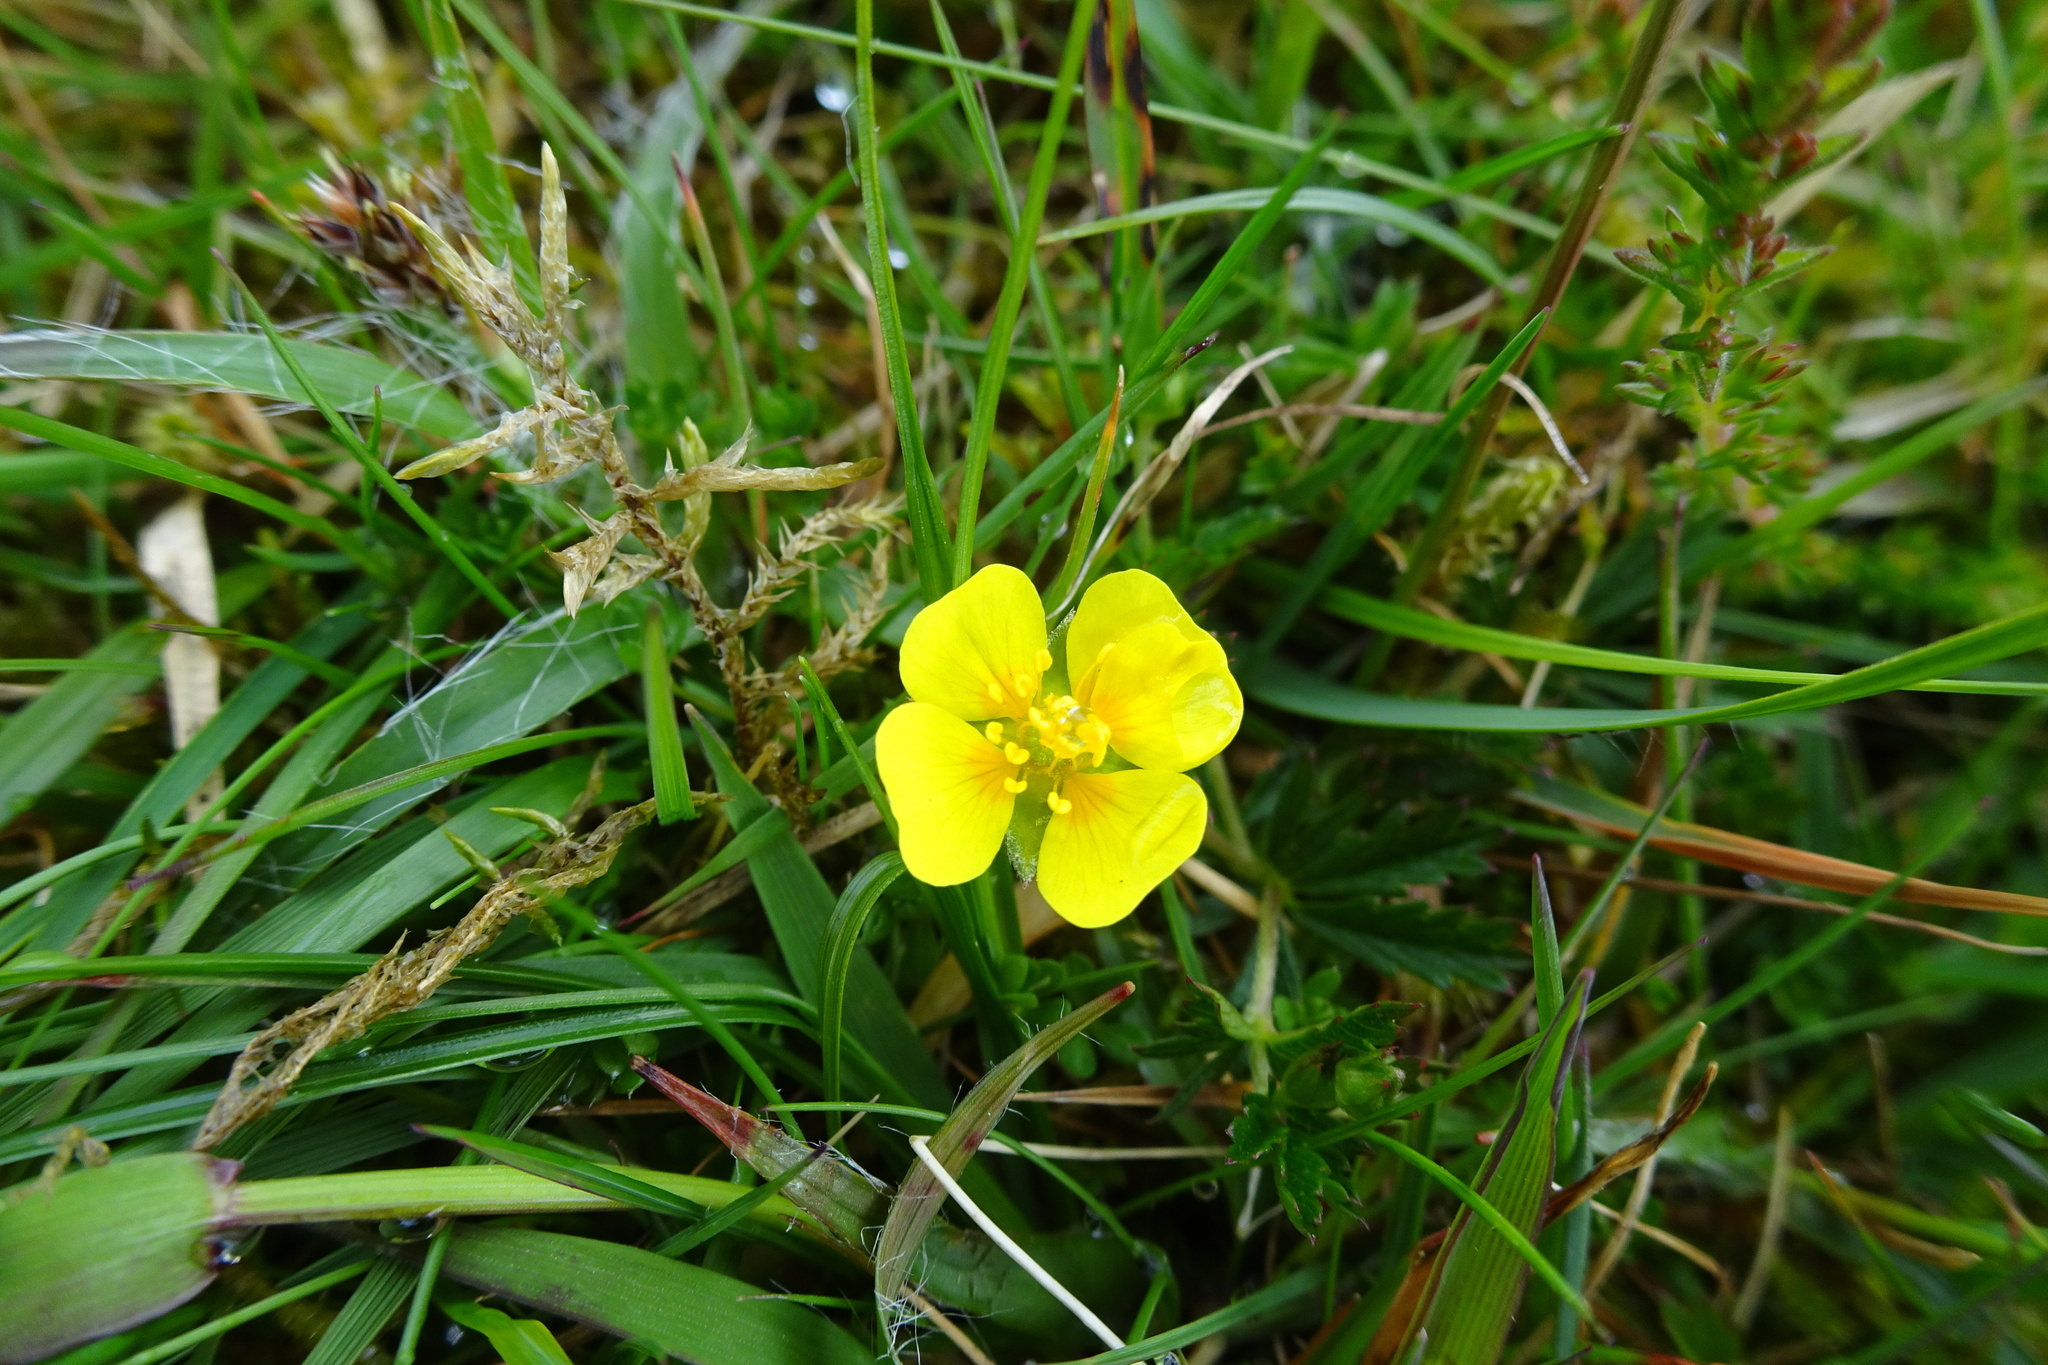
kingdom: Plantae
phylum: Tracheophyta
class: Magnoliopsida
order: Rosales
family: Rosaceae
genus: Potentilla
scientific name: Potentilla erecta
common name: Tormentil
